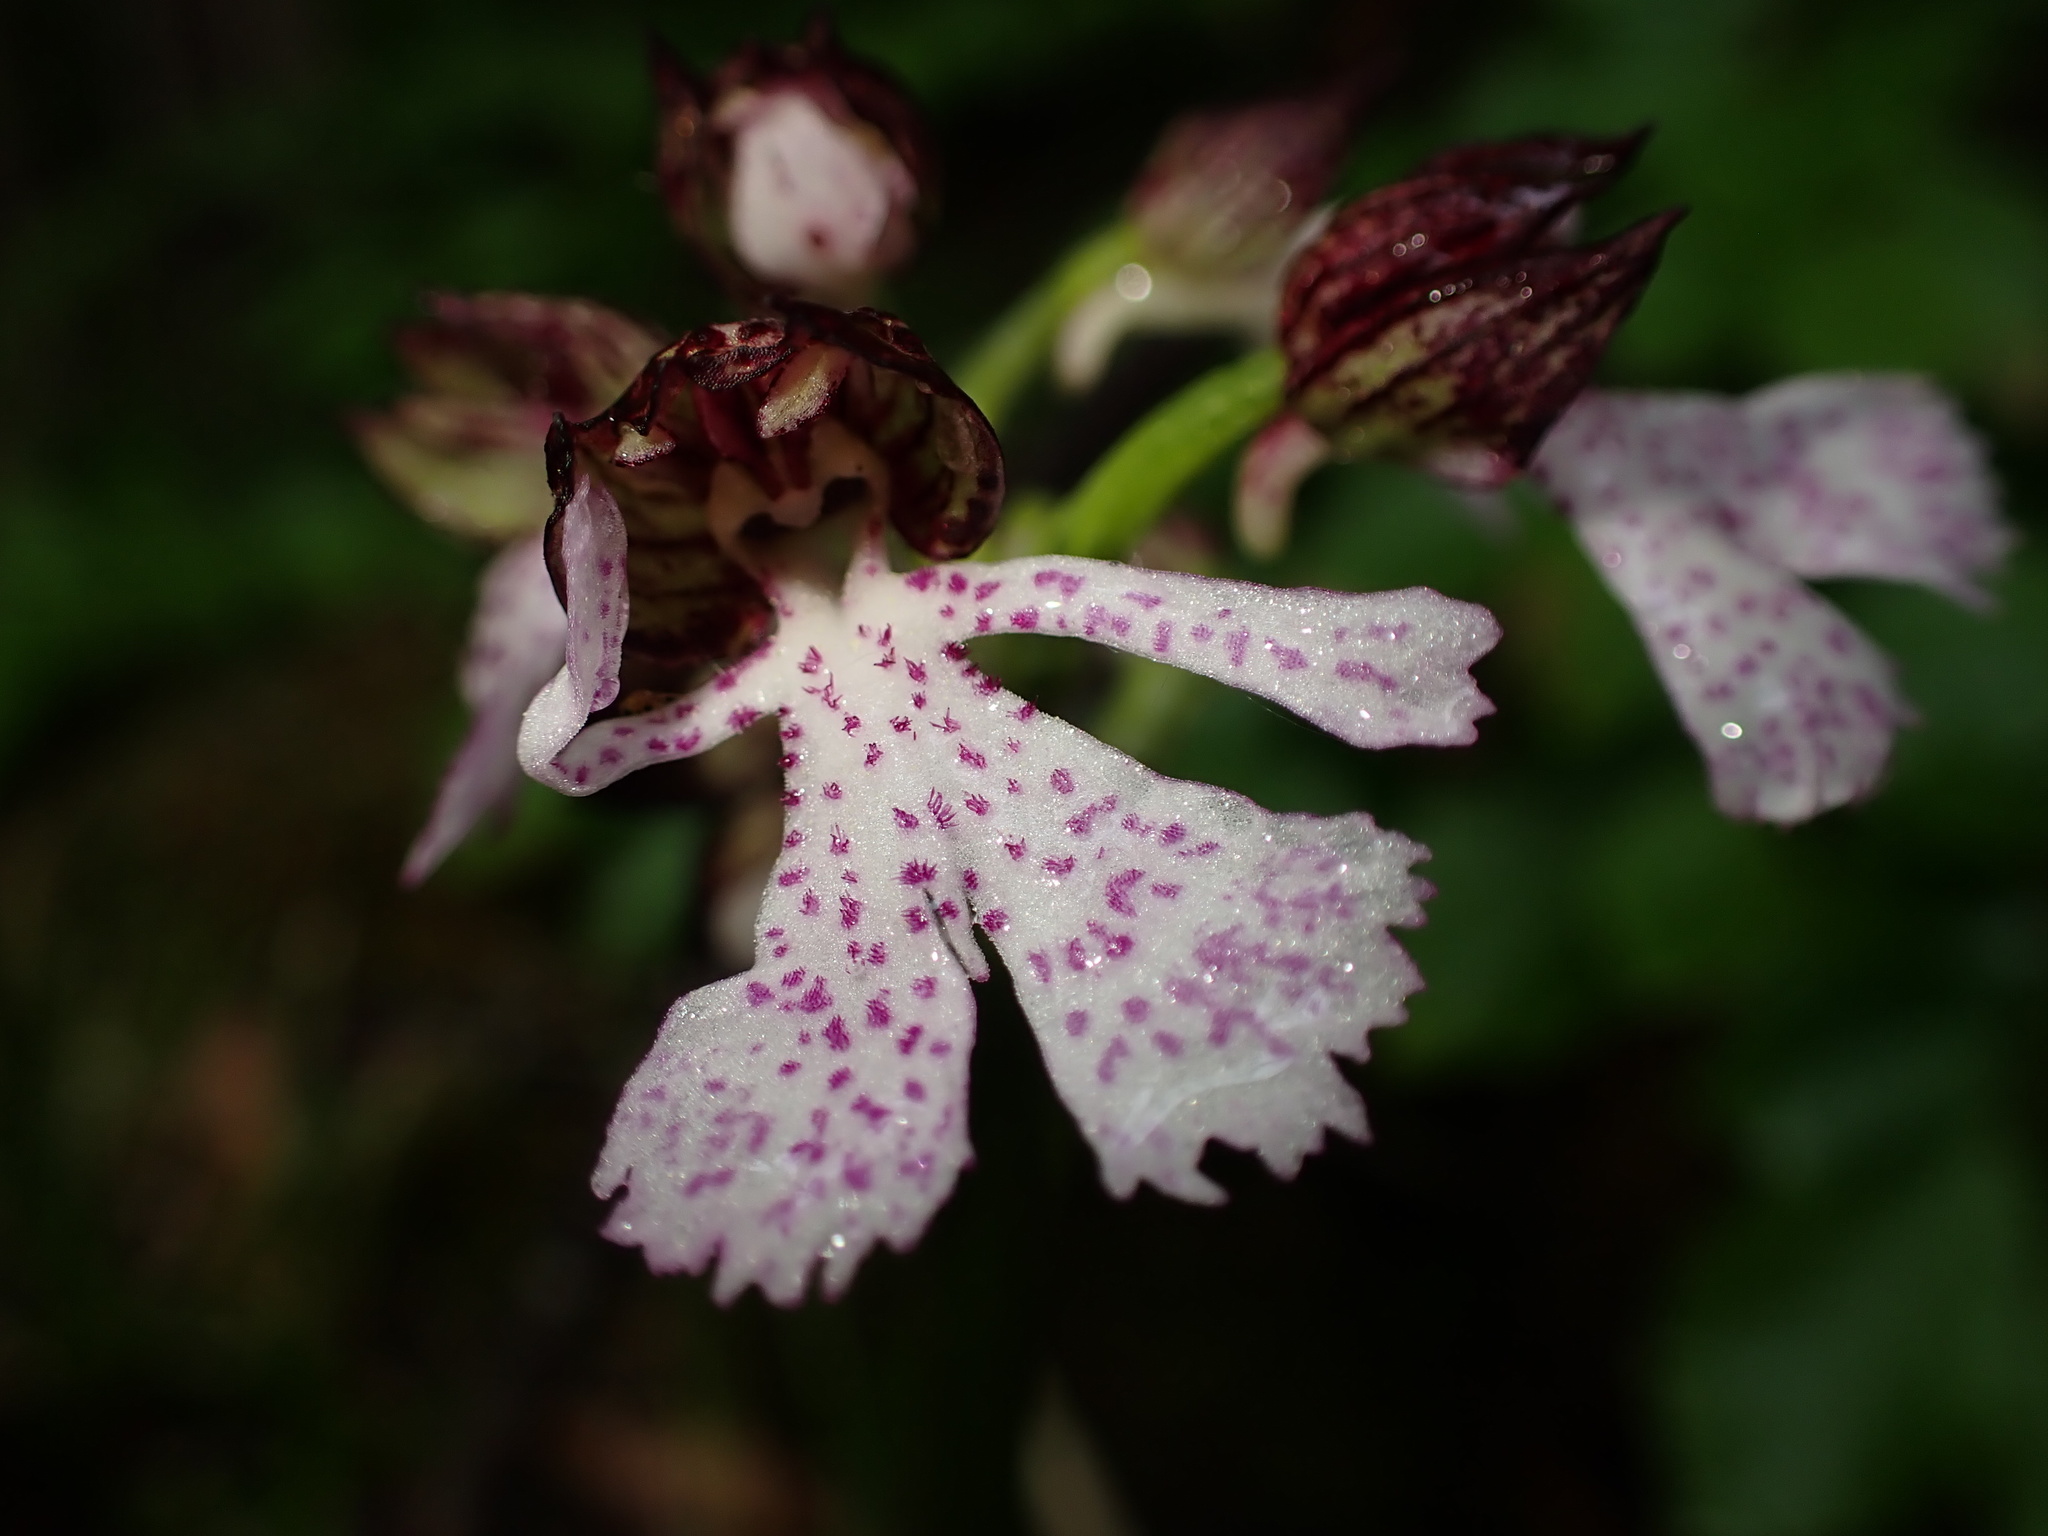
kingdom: Plantae
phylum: Tracheophyta
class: Liliopsida
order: Asparagales
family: Orchidaceae
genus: Orchis
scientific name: Orchis purpurea
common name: Lady orchid
